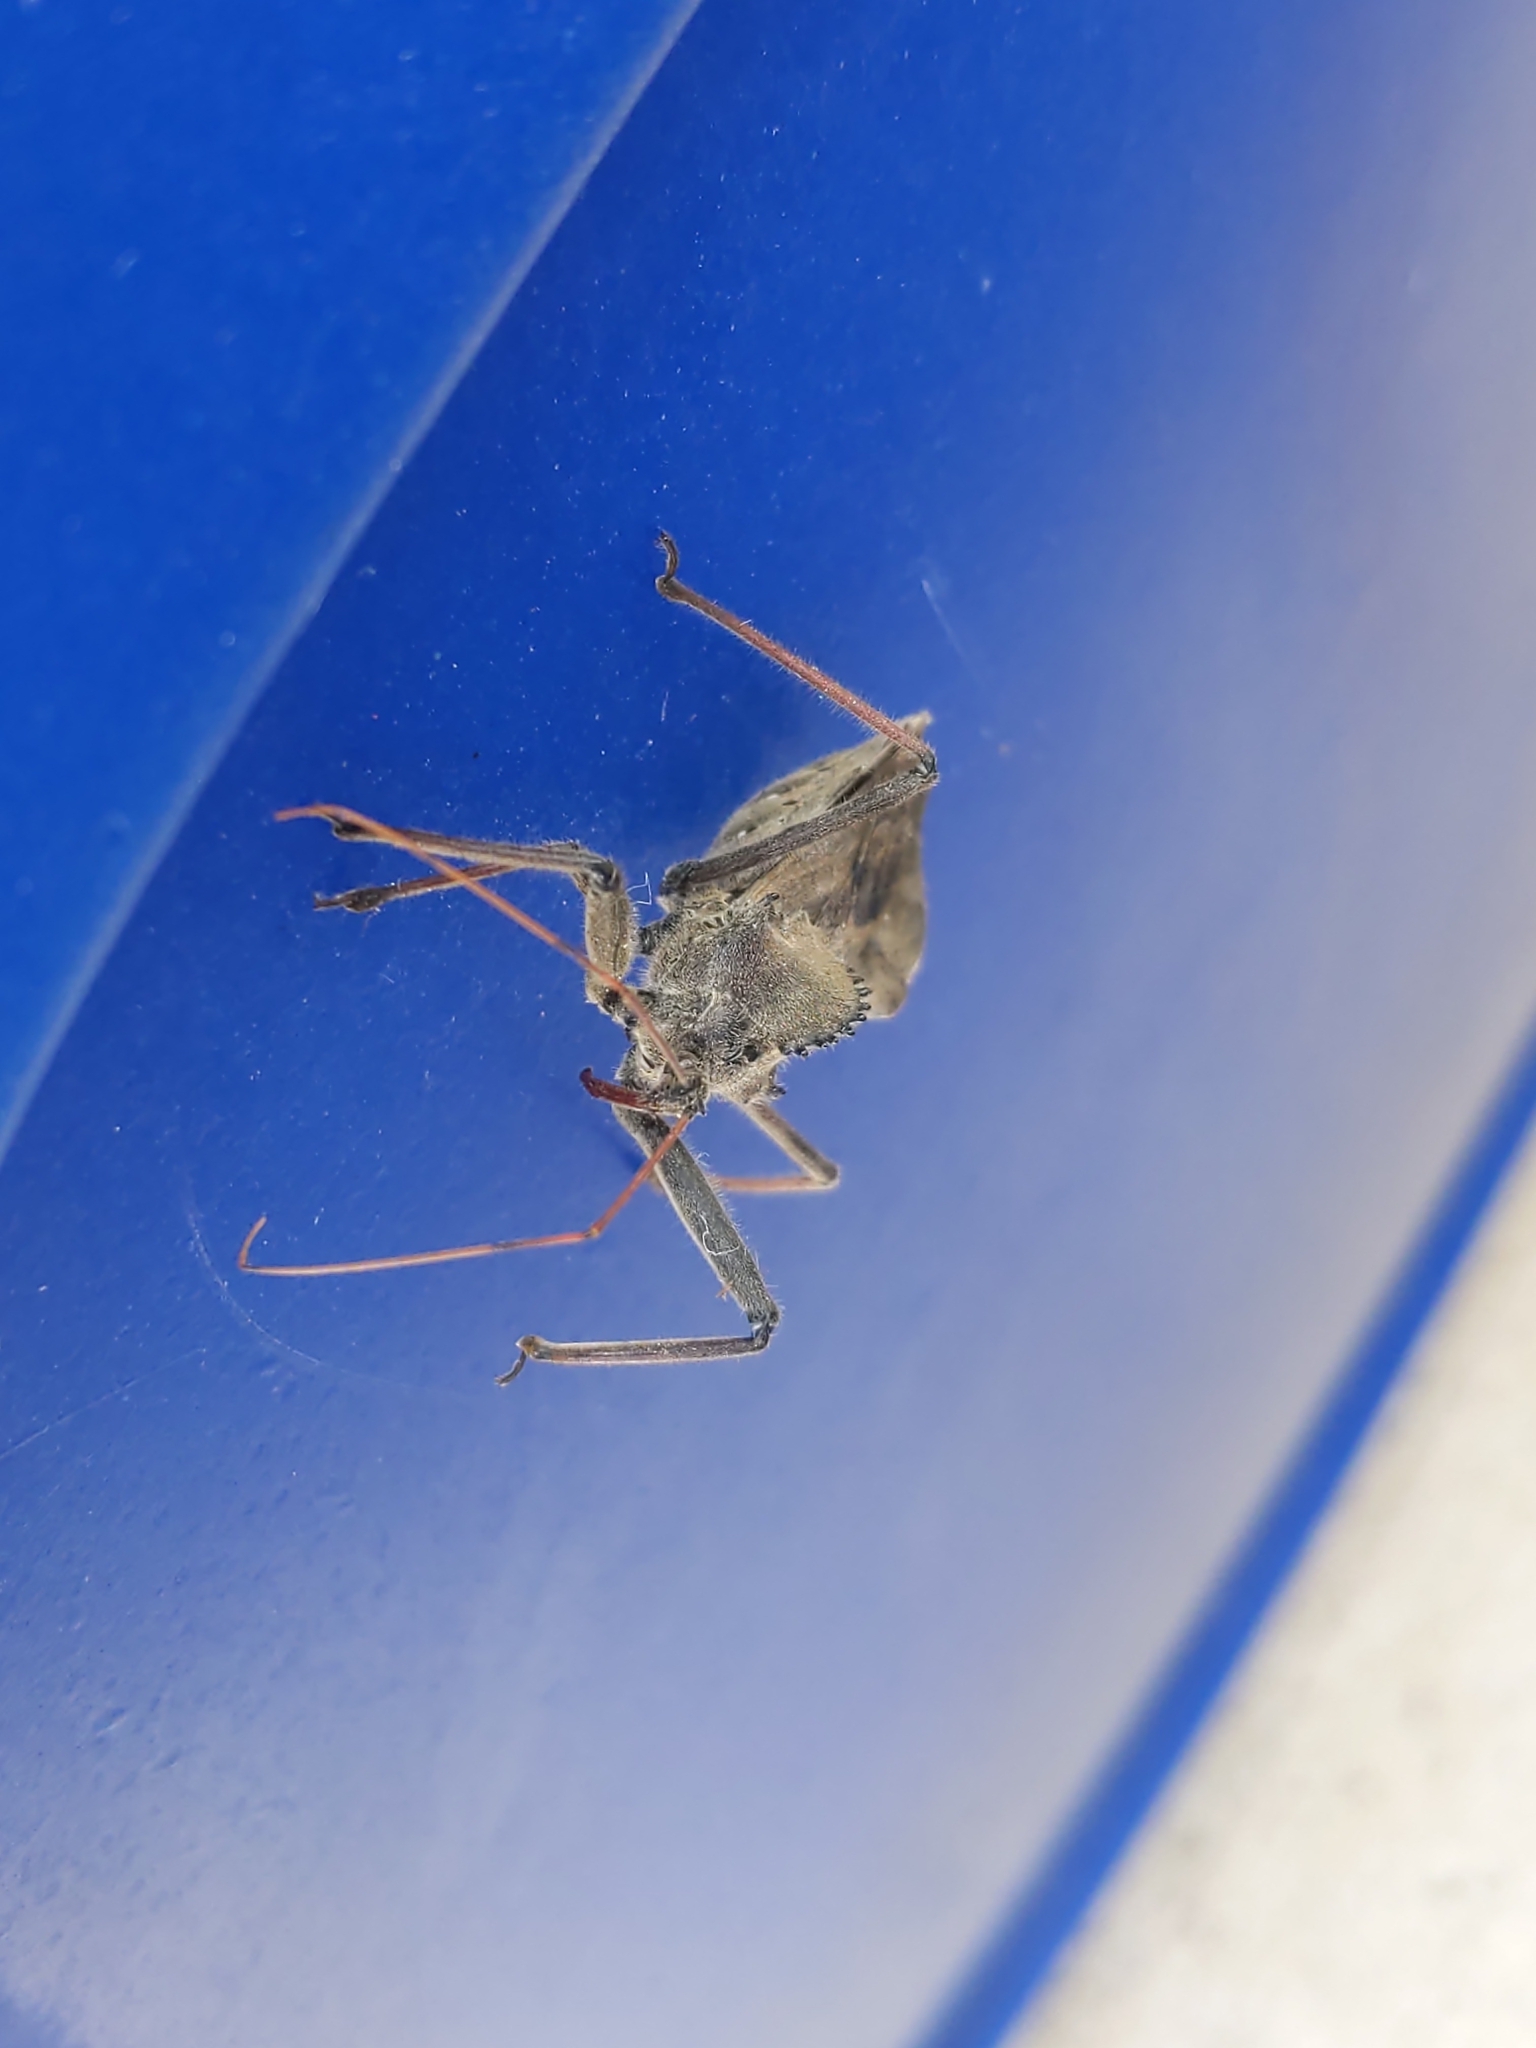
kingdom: Animalia
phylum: Arthropoda
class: Insecta
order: Hemiptera
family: Reduviidae
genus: Arilus
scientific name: Arilus cristatus
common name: North american wheel bug
